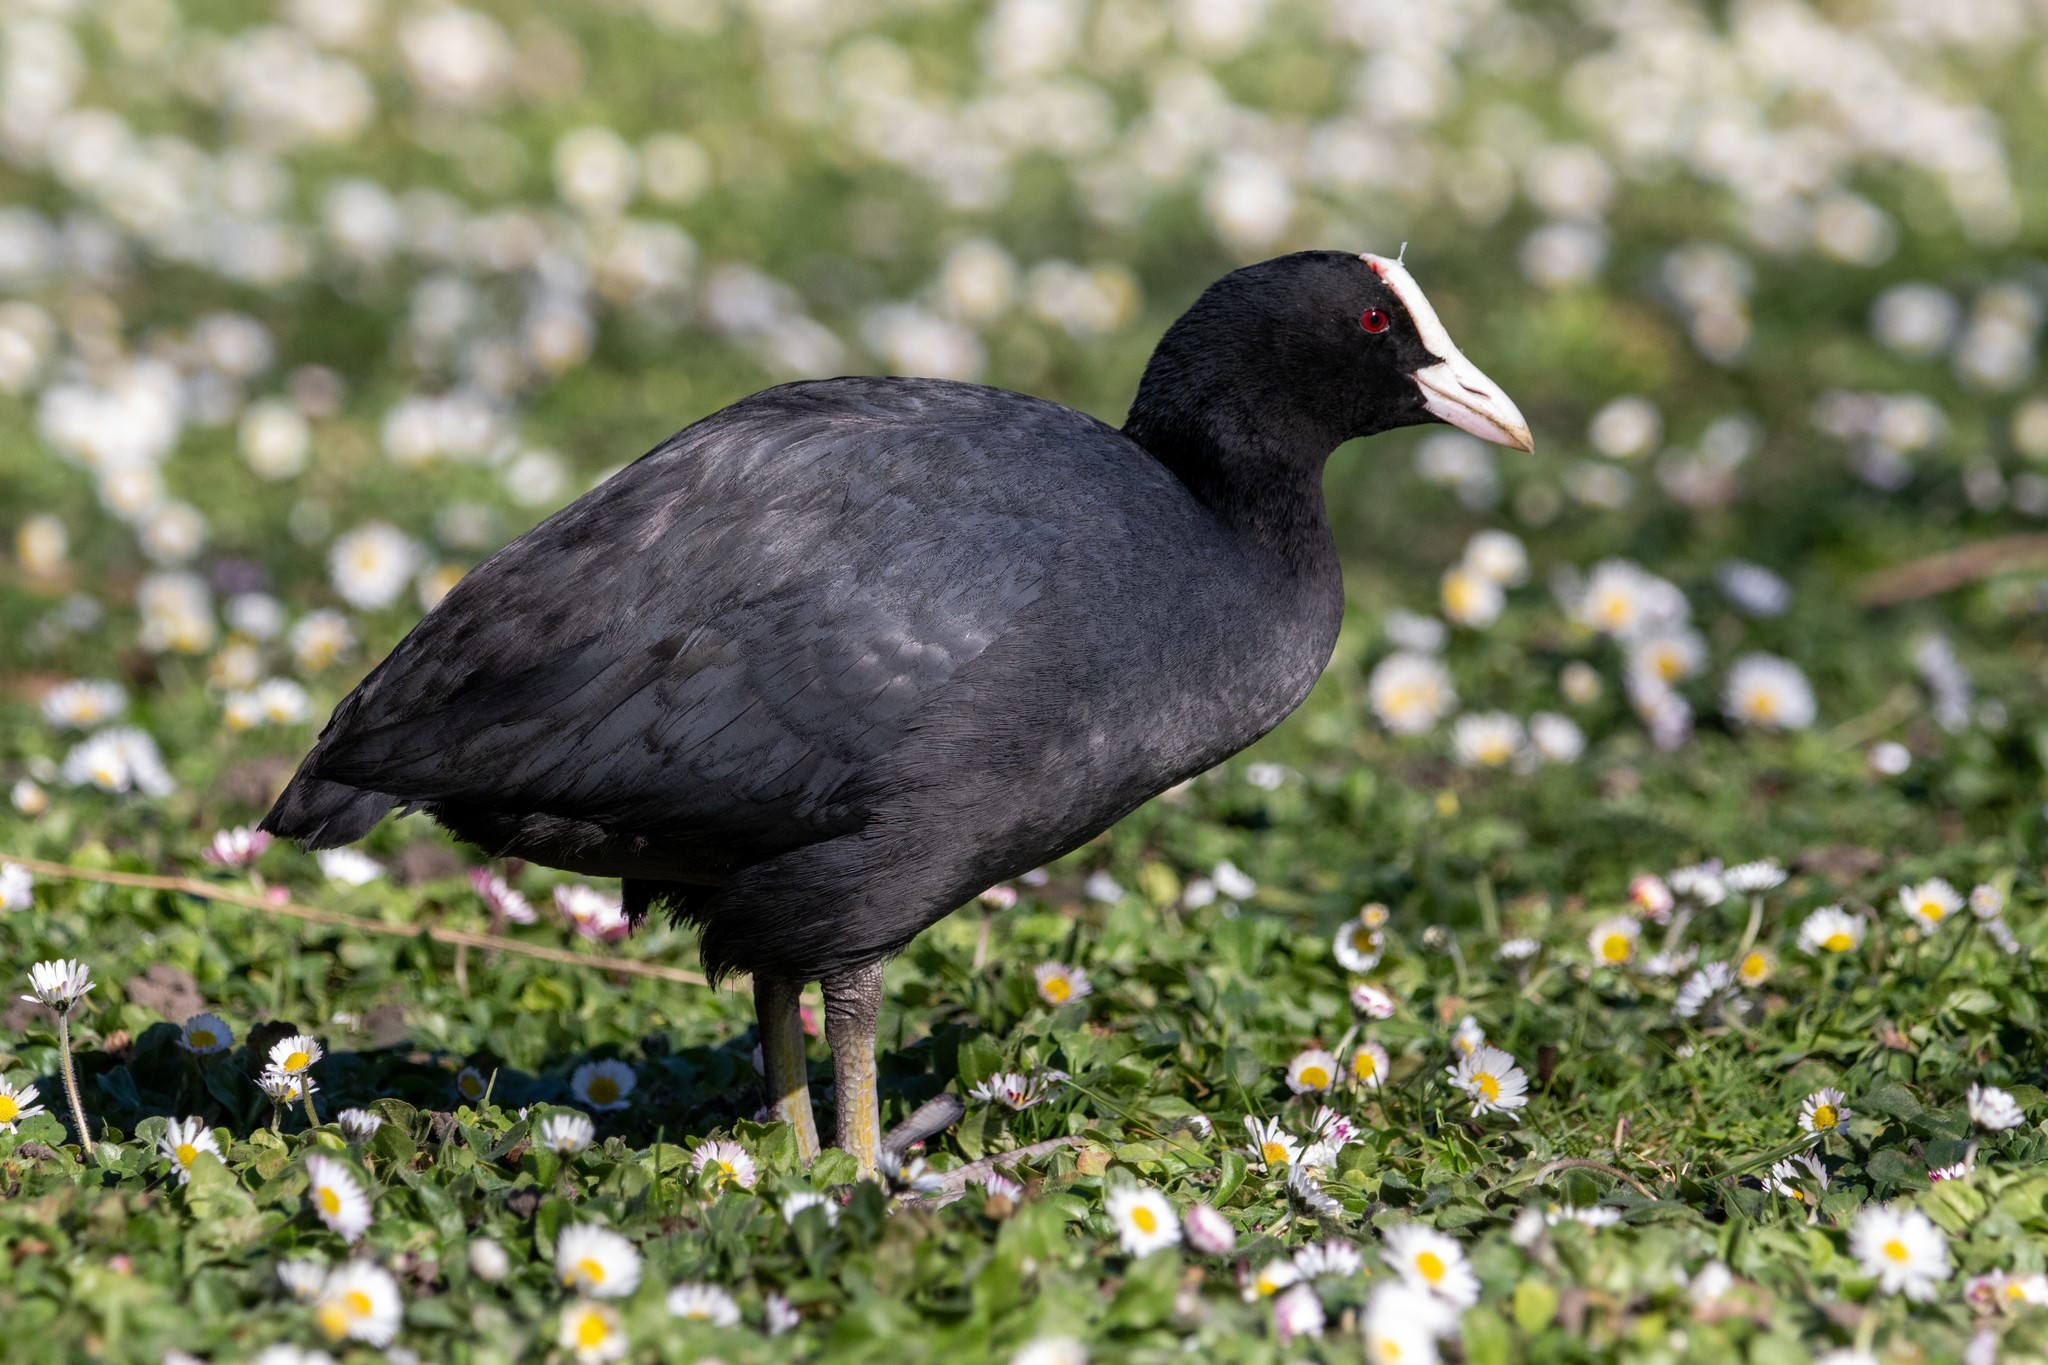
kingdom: Animalia
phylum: Chordata
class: Aves
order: Gruiformes
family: Rallidae
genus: Fulica
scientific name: Fulica atra
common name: Eurasian coot
